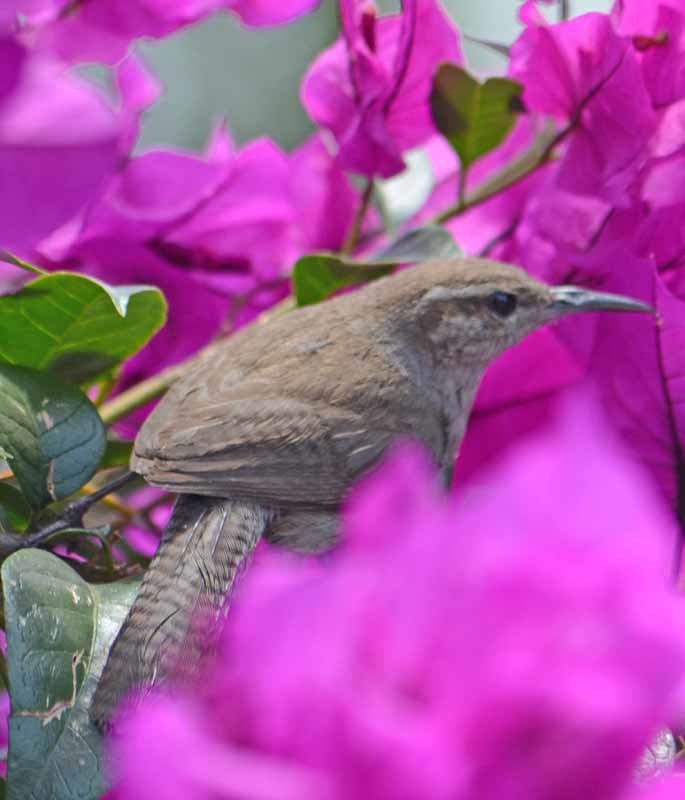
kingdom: Animalia
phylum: Chordata
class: Aves
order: Passeriformes
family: Troglodytidae
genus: Thryomanes
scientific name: Thryomanes bewickii
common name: Bewick's wren
